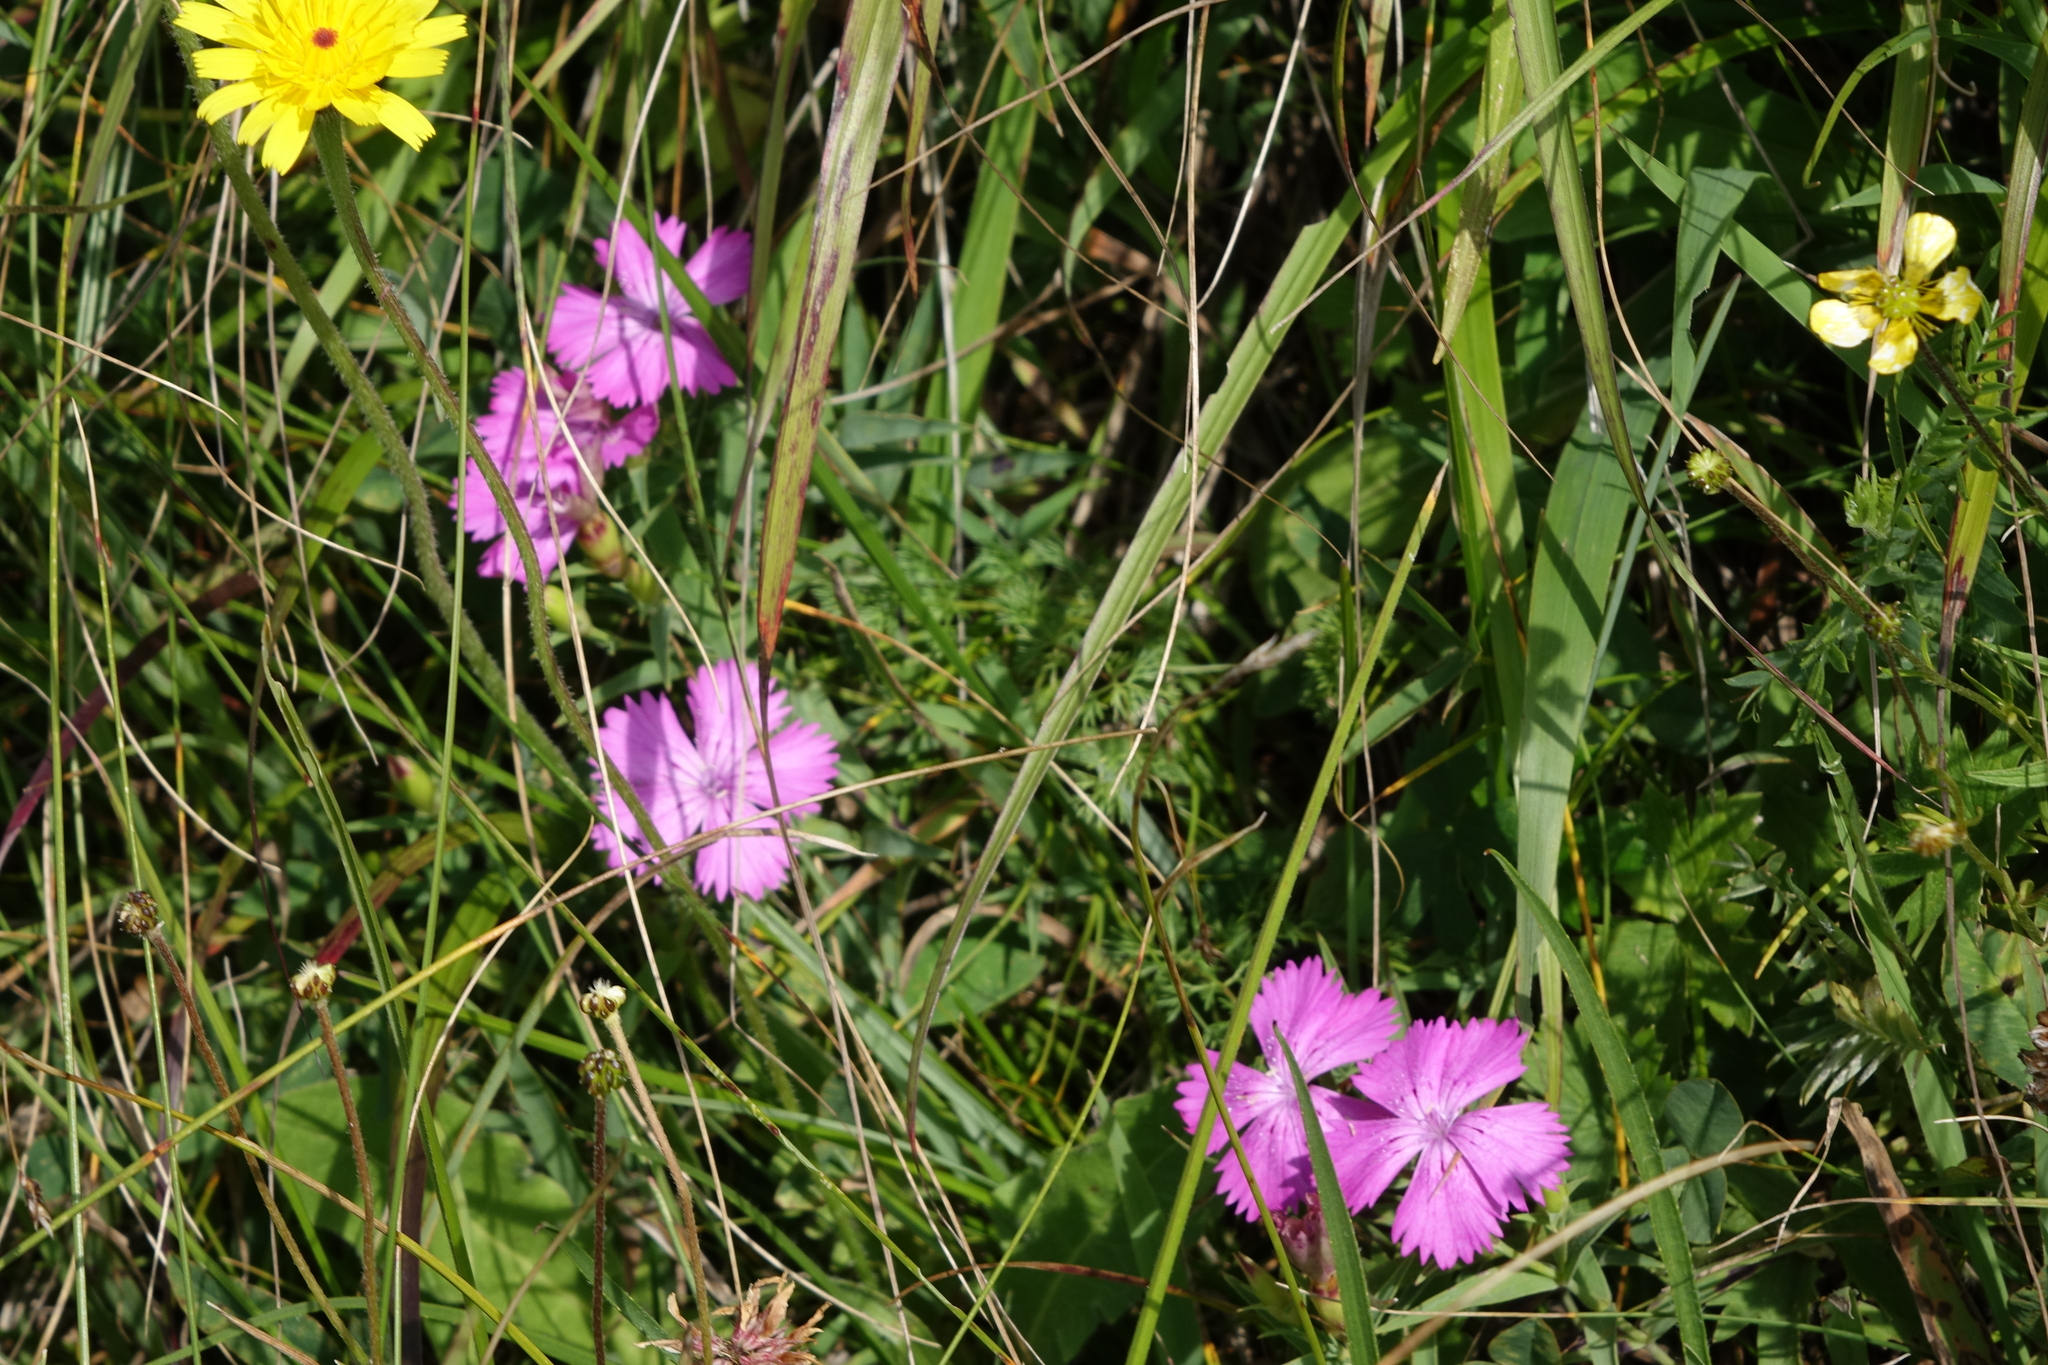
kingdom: Plantae
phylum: Tracheophyta
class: Magnoliopsida
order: Caryophyllales
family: Caryophyllaceae
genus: Dianthus
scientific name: Dianthus caucaseus
